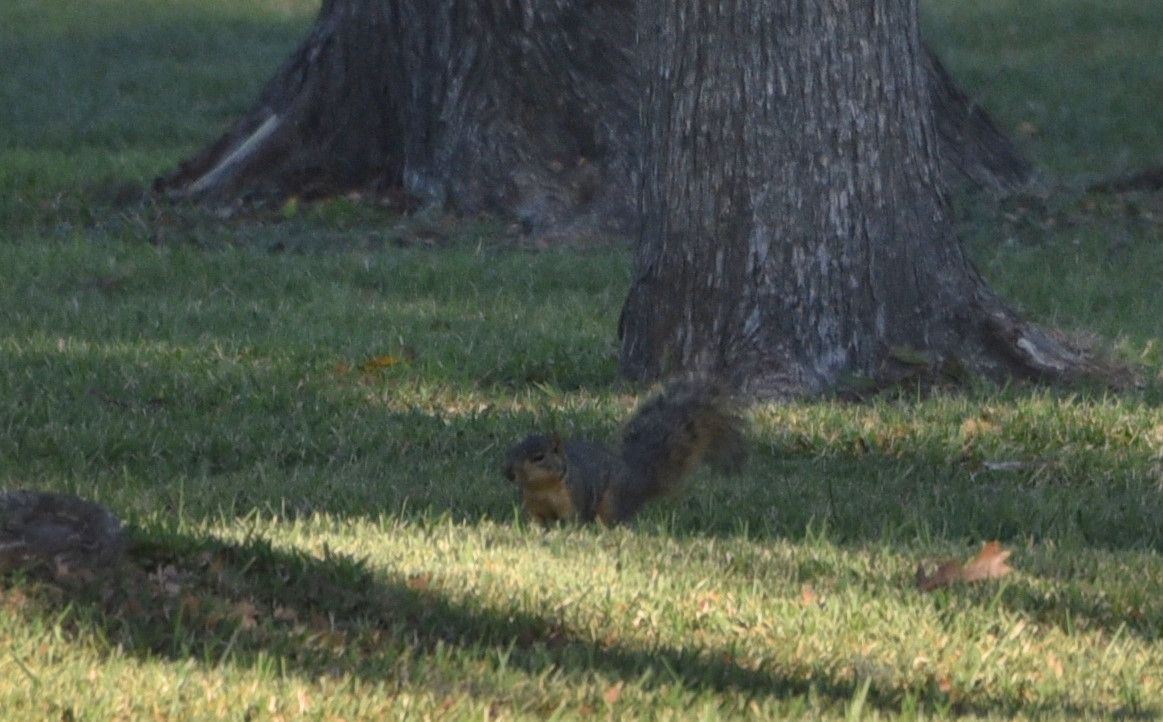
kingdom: Animalia
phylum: Chordata
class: Mammalia
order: Rodentia
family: Sciuridae
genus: Sciurus
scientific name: Sciurus niger
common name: Fox squirrel
